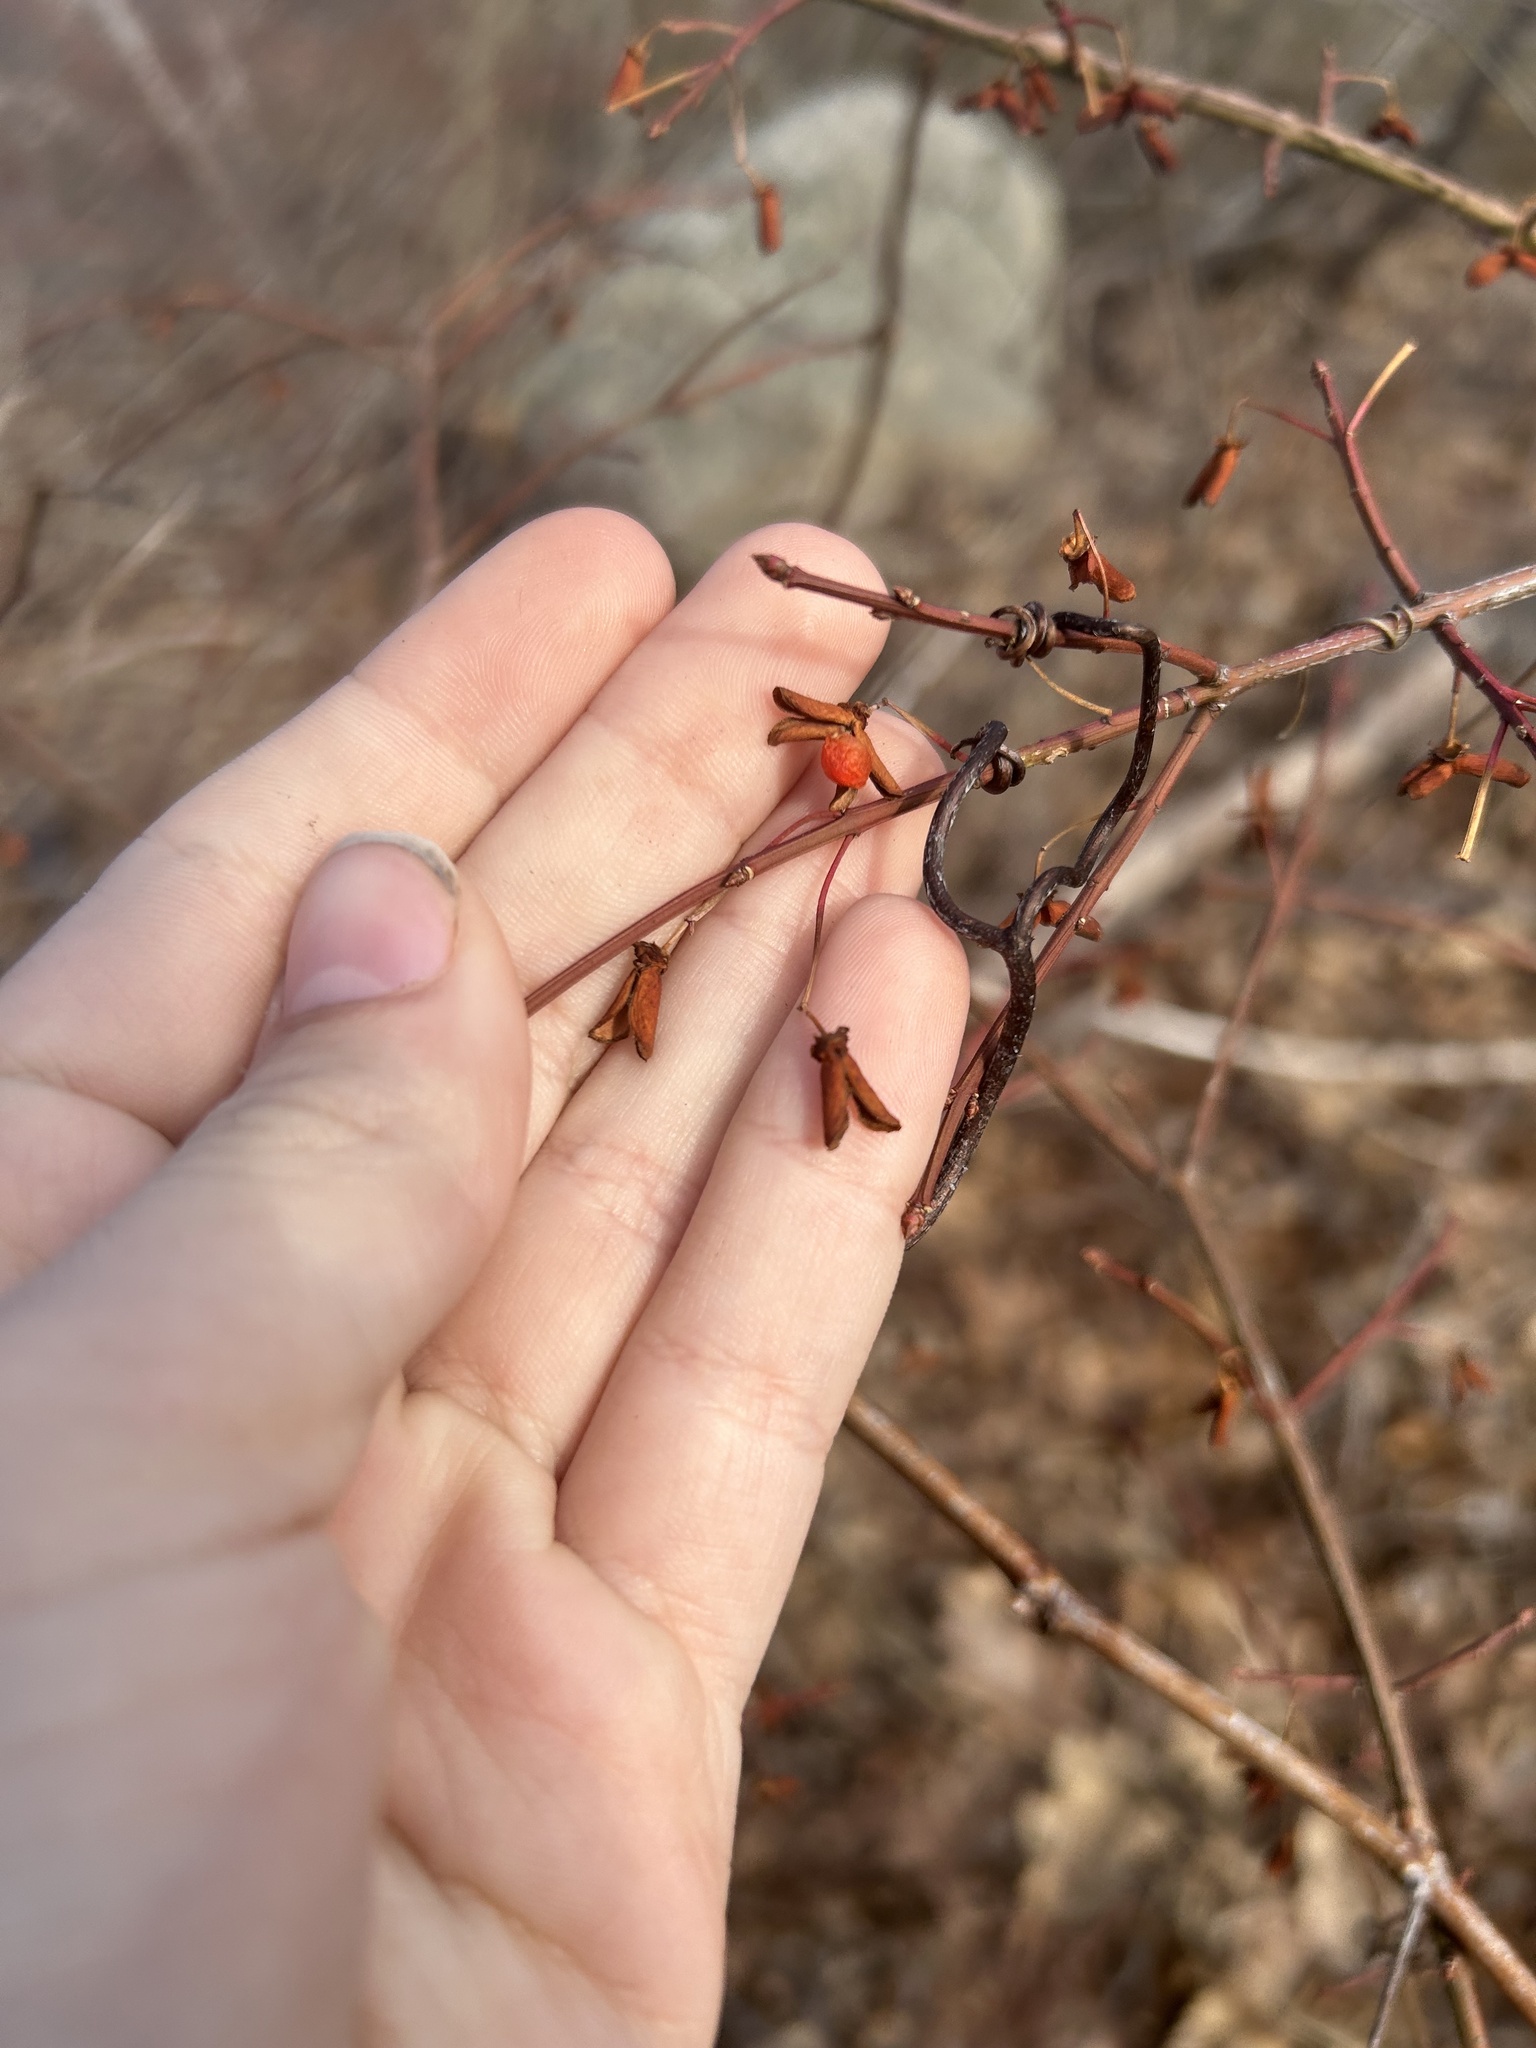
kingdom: Plantae
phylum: Tracheophyta
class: Magnoliopsida
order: Celastrales
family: Celastraceae
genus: Euonymus
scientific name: Euonymus alatus
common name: Winged euonymus
